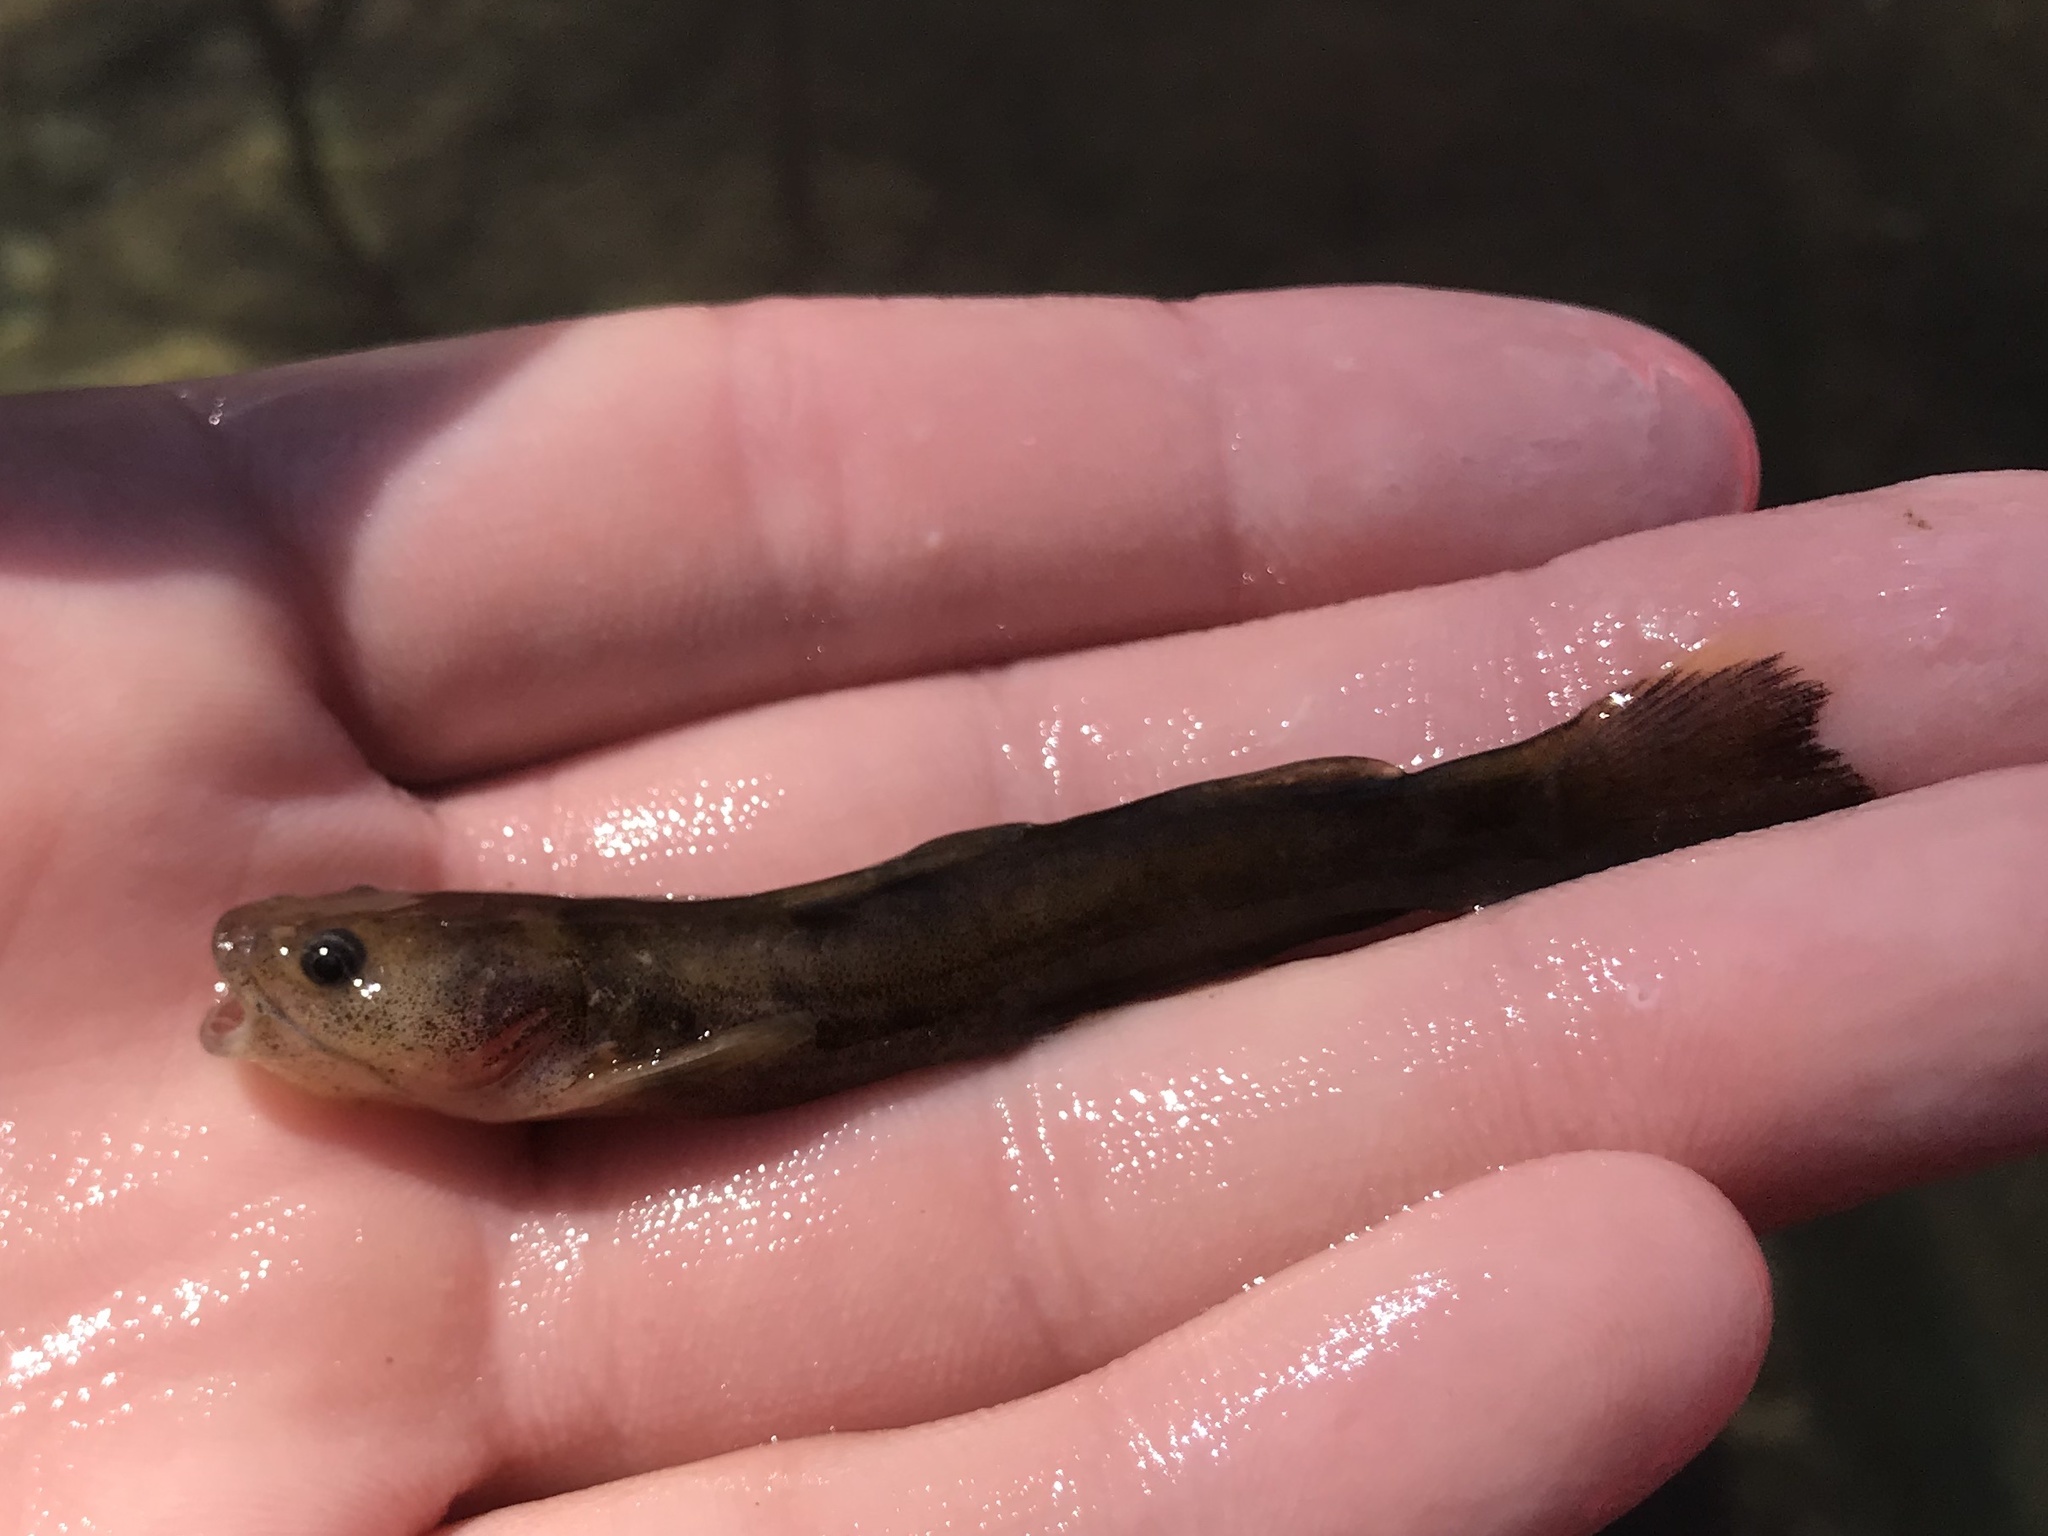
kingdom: Animalia
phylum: Chordata
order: Siluriformes
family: Ictaluridae
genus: Pylodictis
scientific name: Pylodictis olivaris
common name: Flathead catfish
